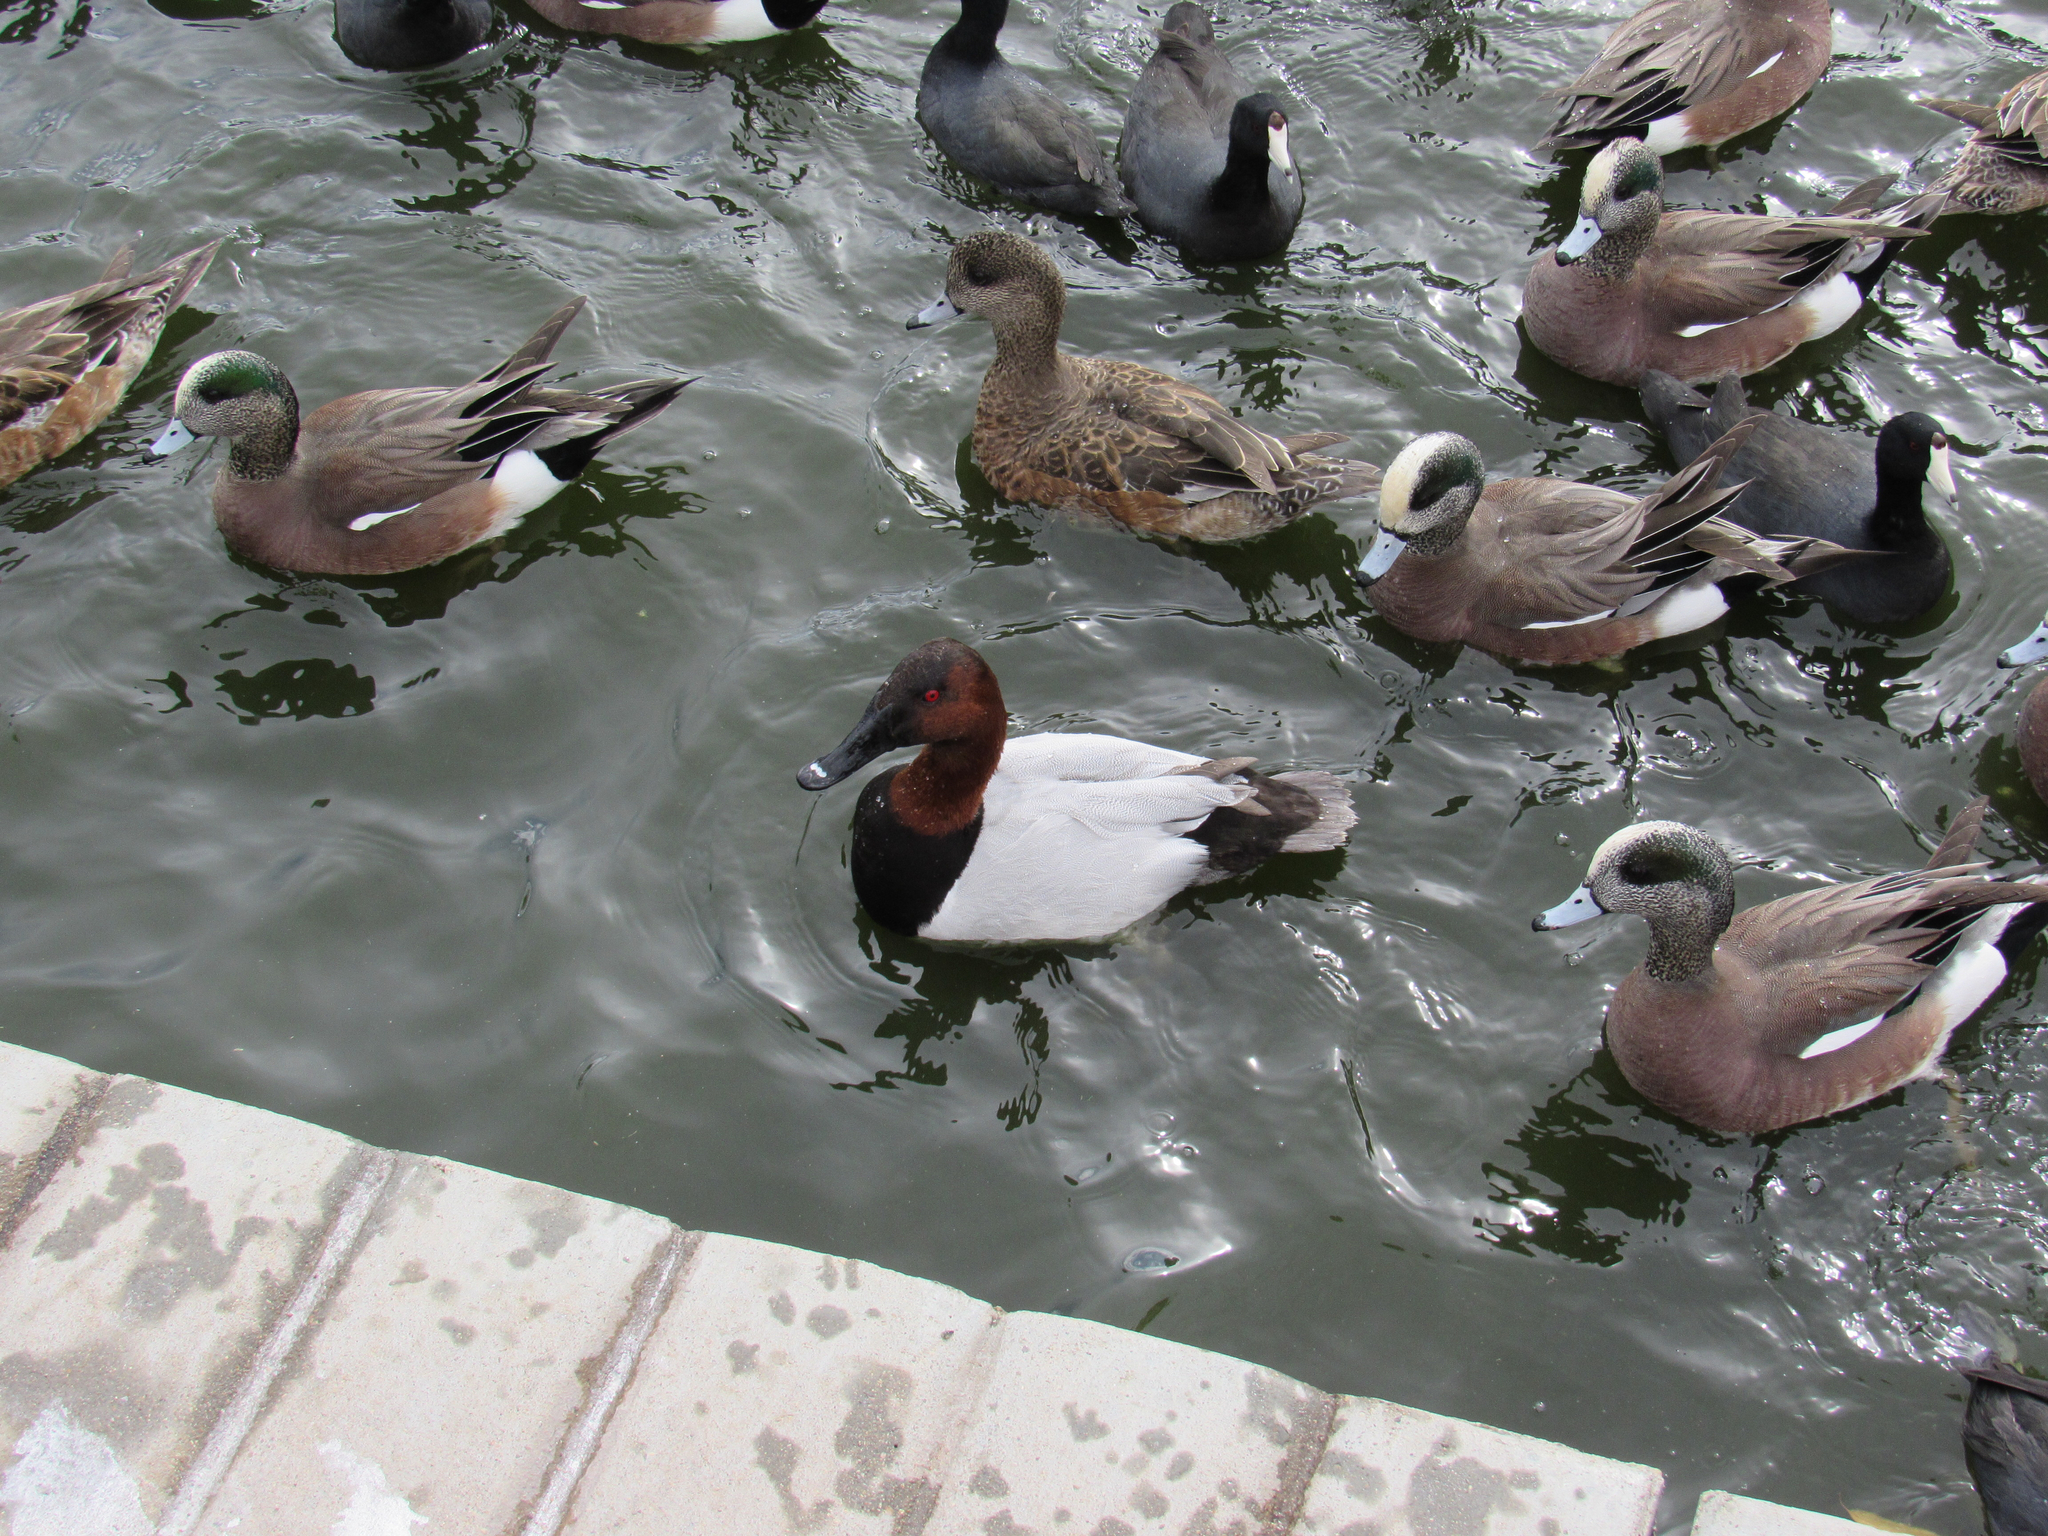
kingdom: Animalia
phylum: Chordata
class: Aves
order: Anseriformes
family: Anatidae
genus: Aythya
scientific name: Aythya valisineria
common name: Canvasback
